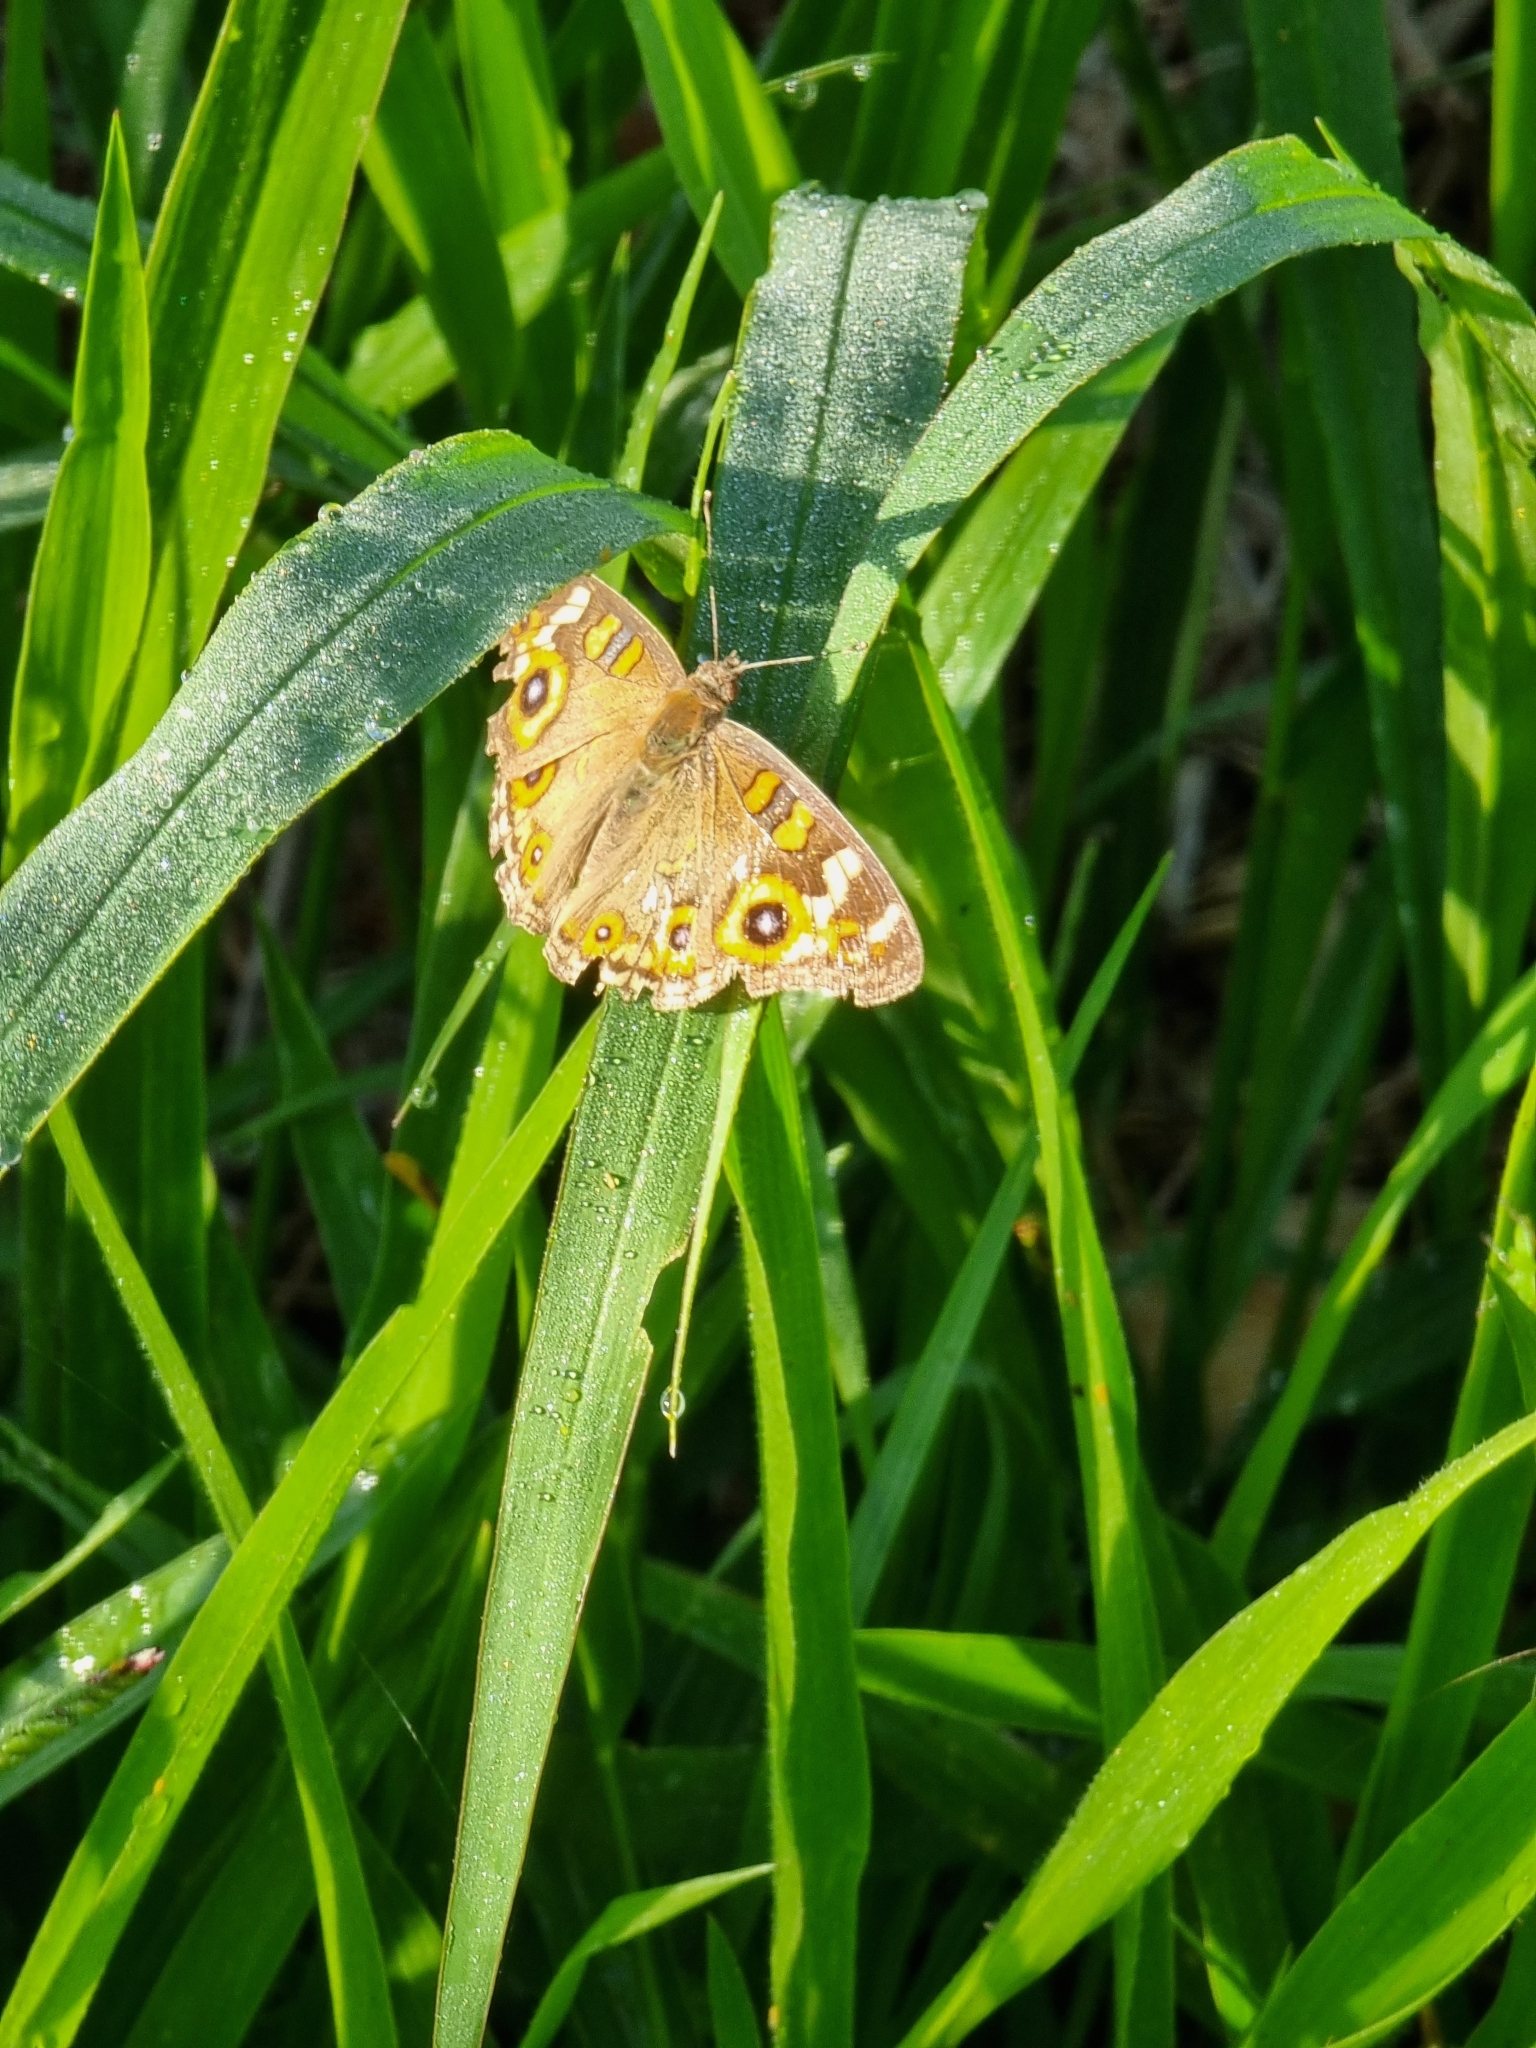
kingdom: Animalia
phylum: Arthropoda
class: Insecta
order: Lepidoptera
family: Nymphalidae
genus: Junonia
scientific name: Junonia villida
